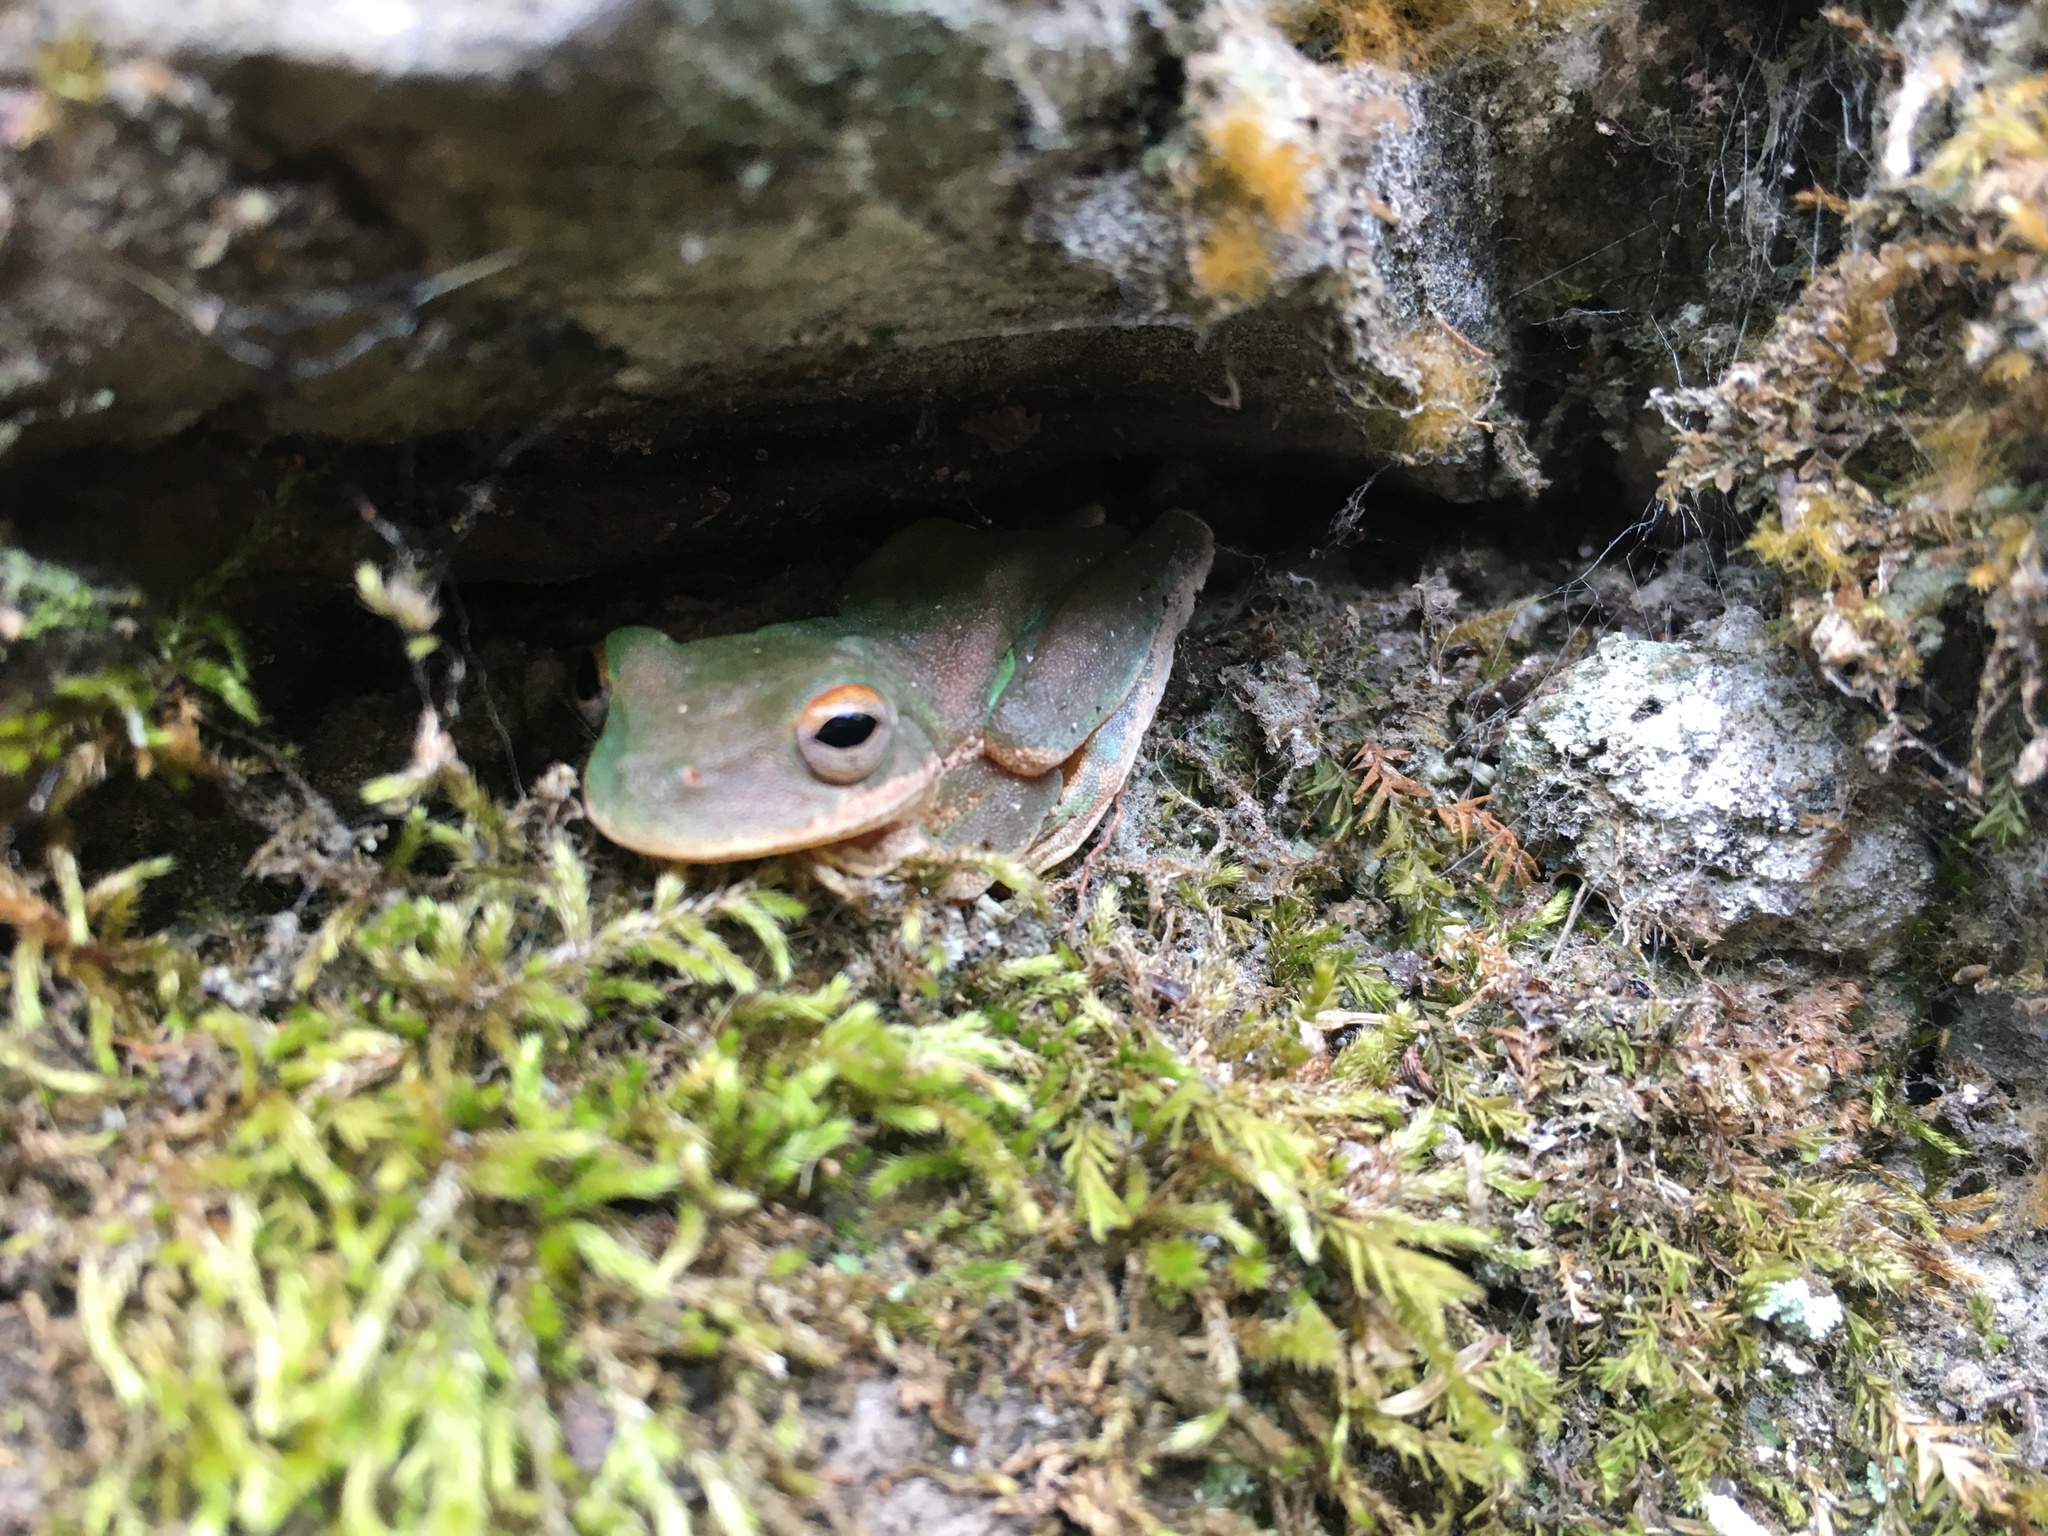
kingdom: Animalia
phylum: Chordata
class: Amphibia
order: Anura
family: Hylidae
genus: Rheohyla
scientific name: Rheohyla miotympanum
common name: Small-eard hyla
